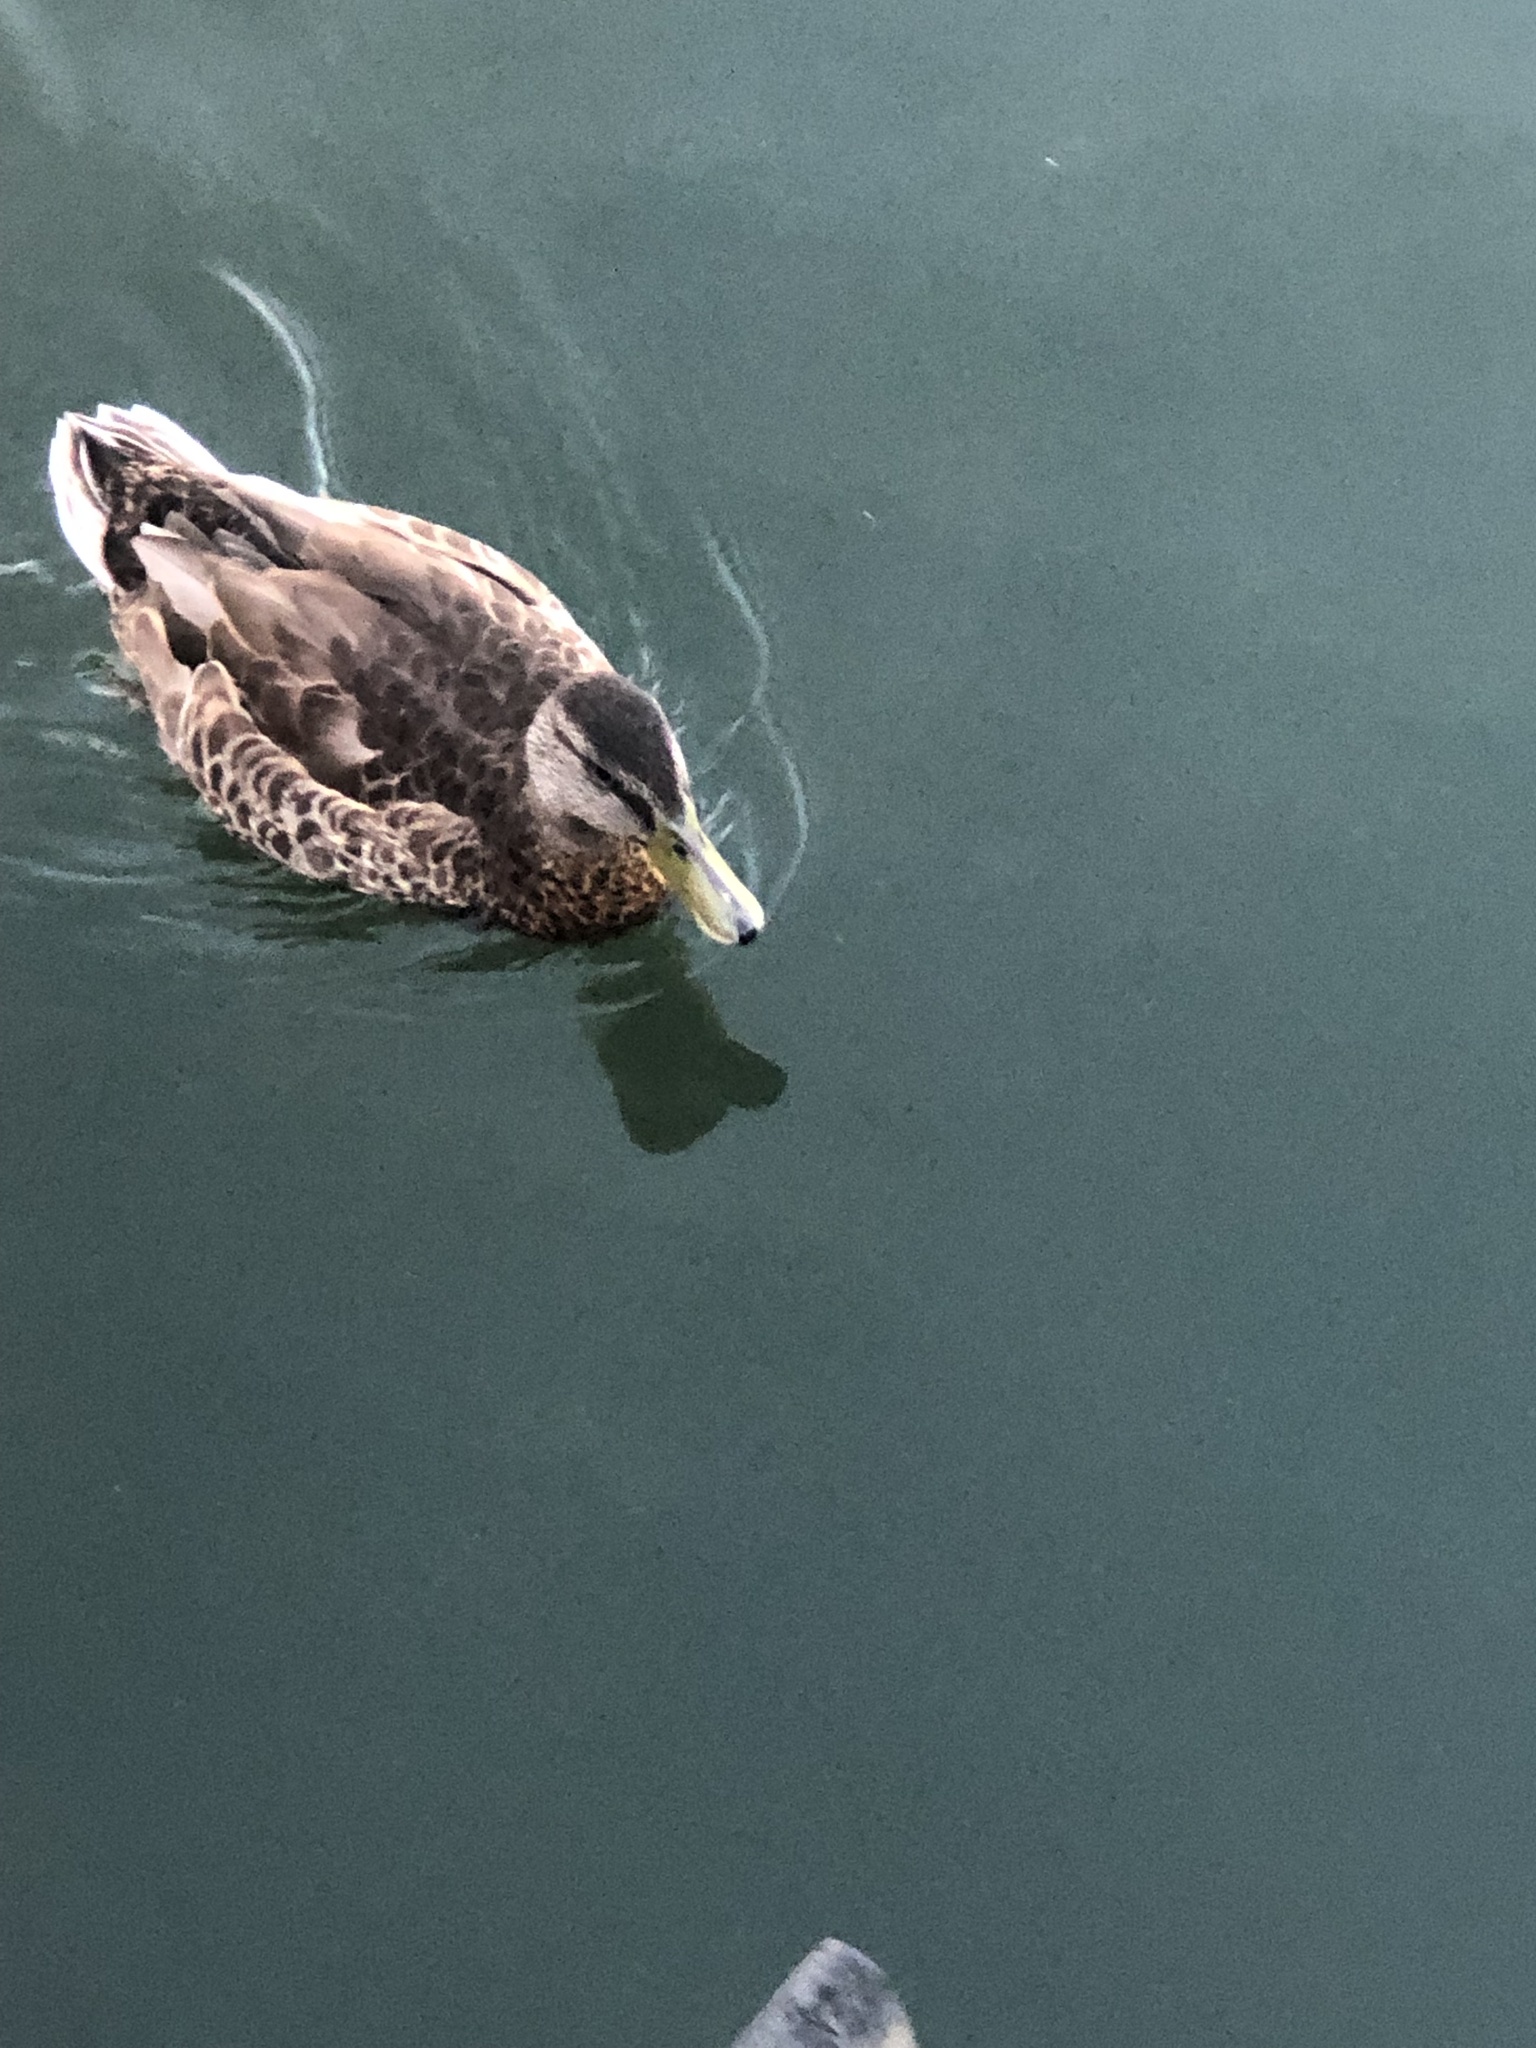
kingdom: Animalia
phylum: Chordata
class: Aves
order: Anseriformes
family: Anatidae
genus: Anas
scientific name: Anas platyrhynchos
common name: Mallard
